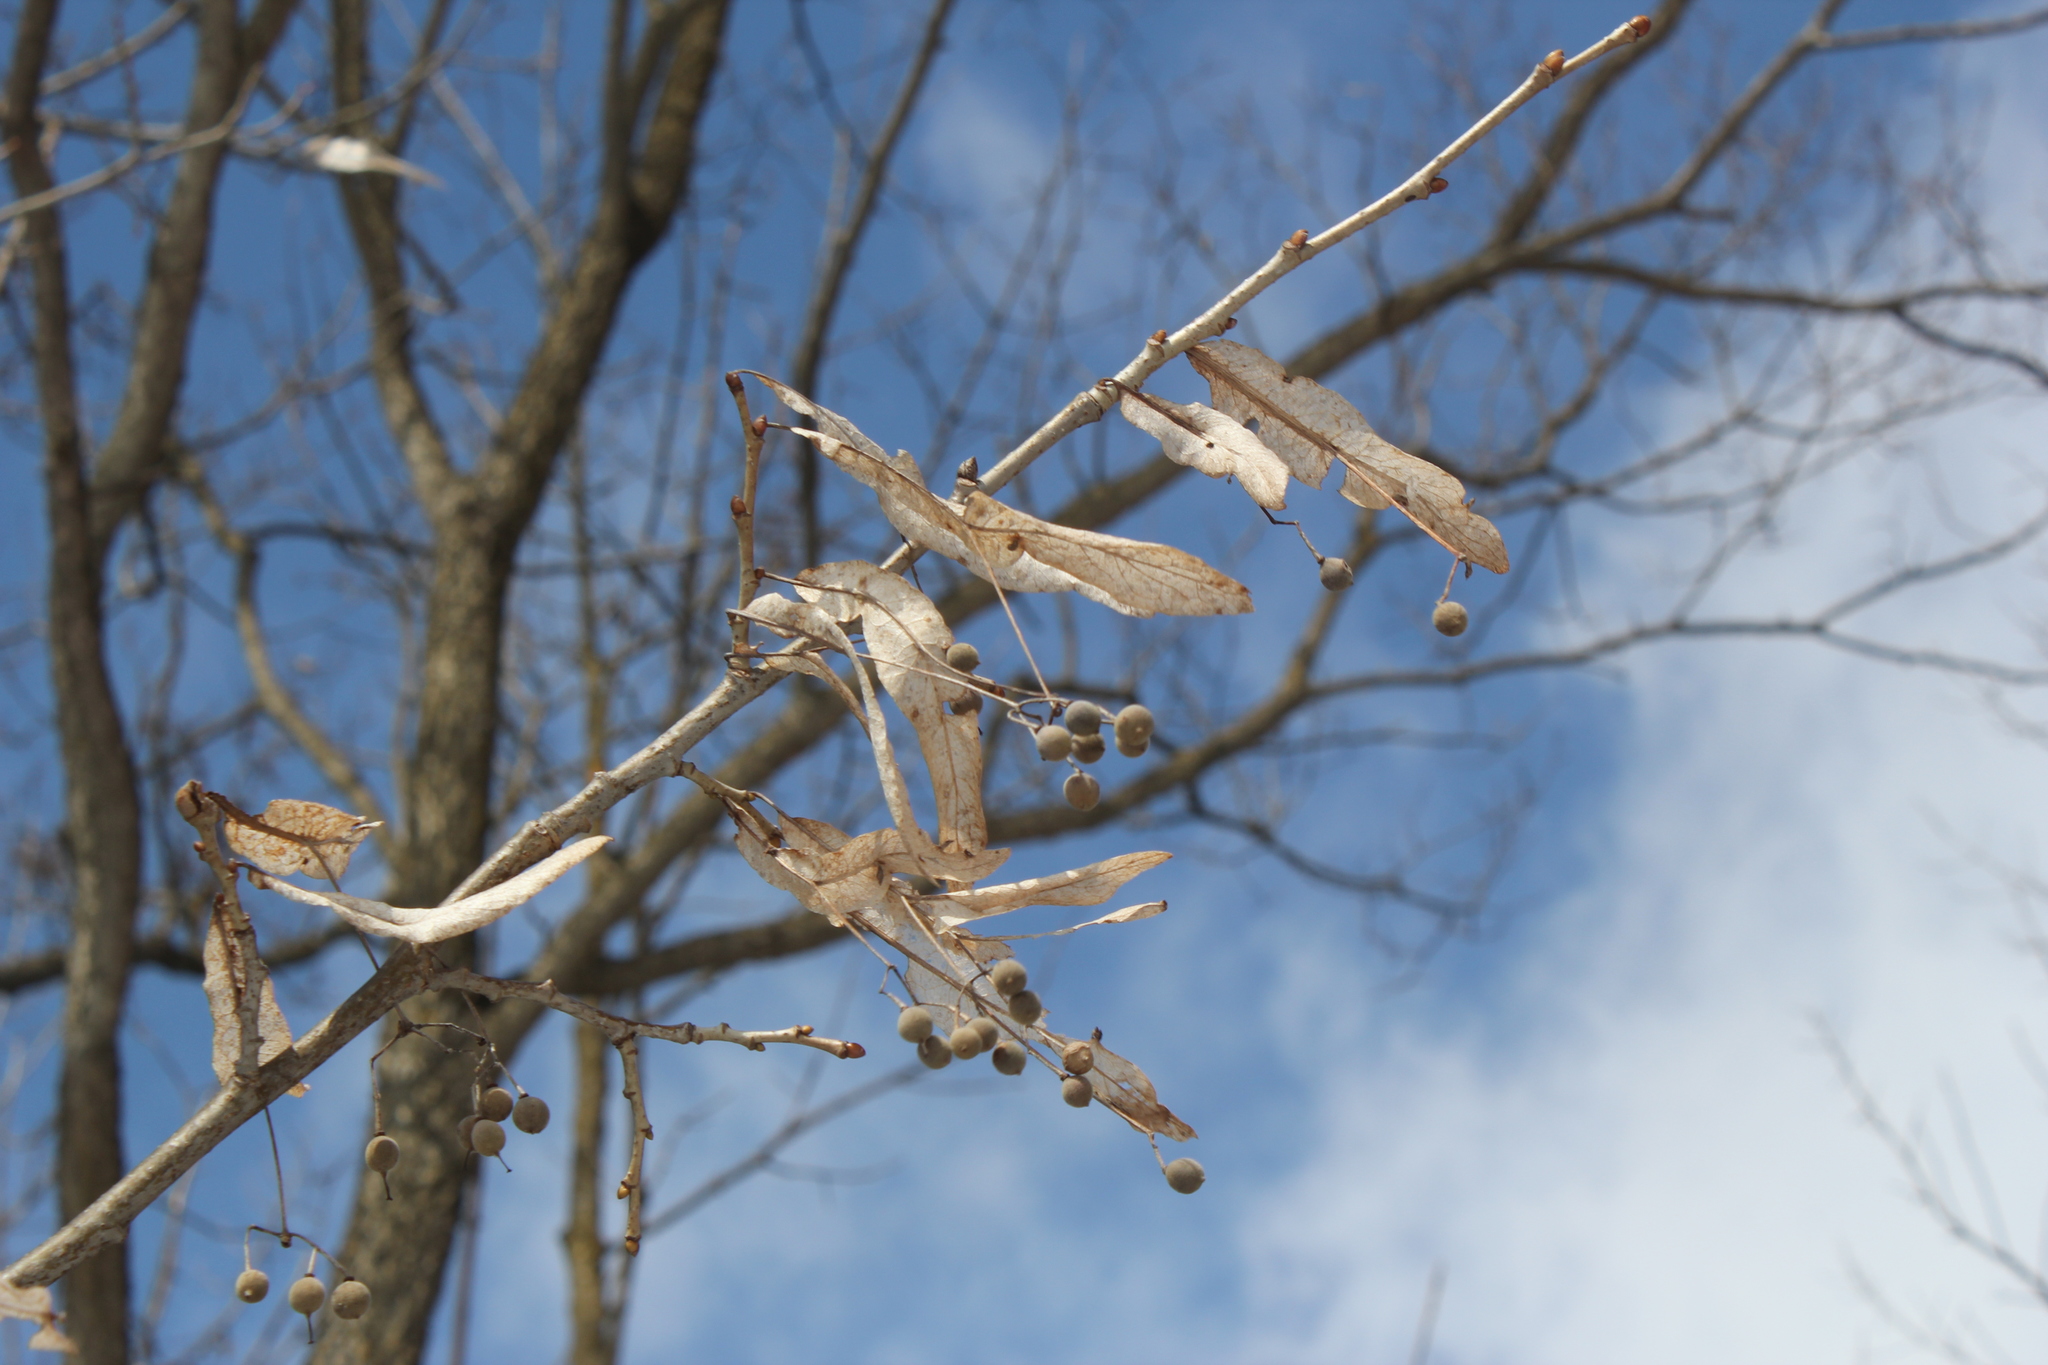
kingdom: Plantae
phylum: Tracheophyta
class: Magnoliopsida
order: Malvales
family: Malvaceae
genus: Tilia
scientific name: Tilia americana
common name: Basswood
